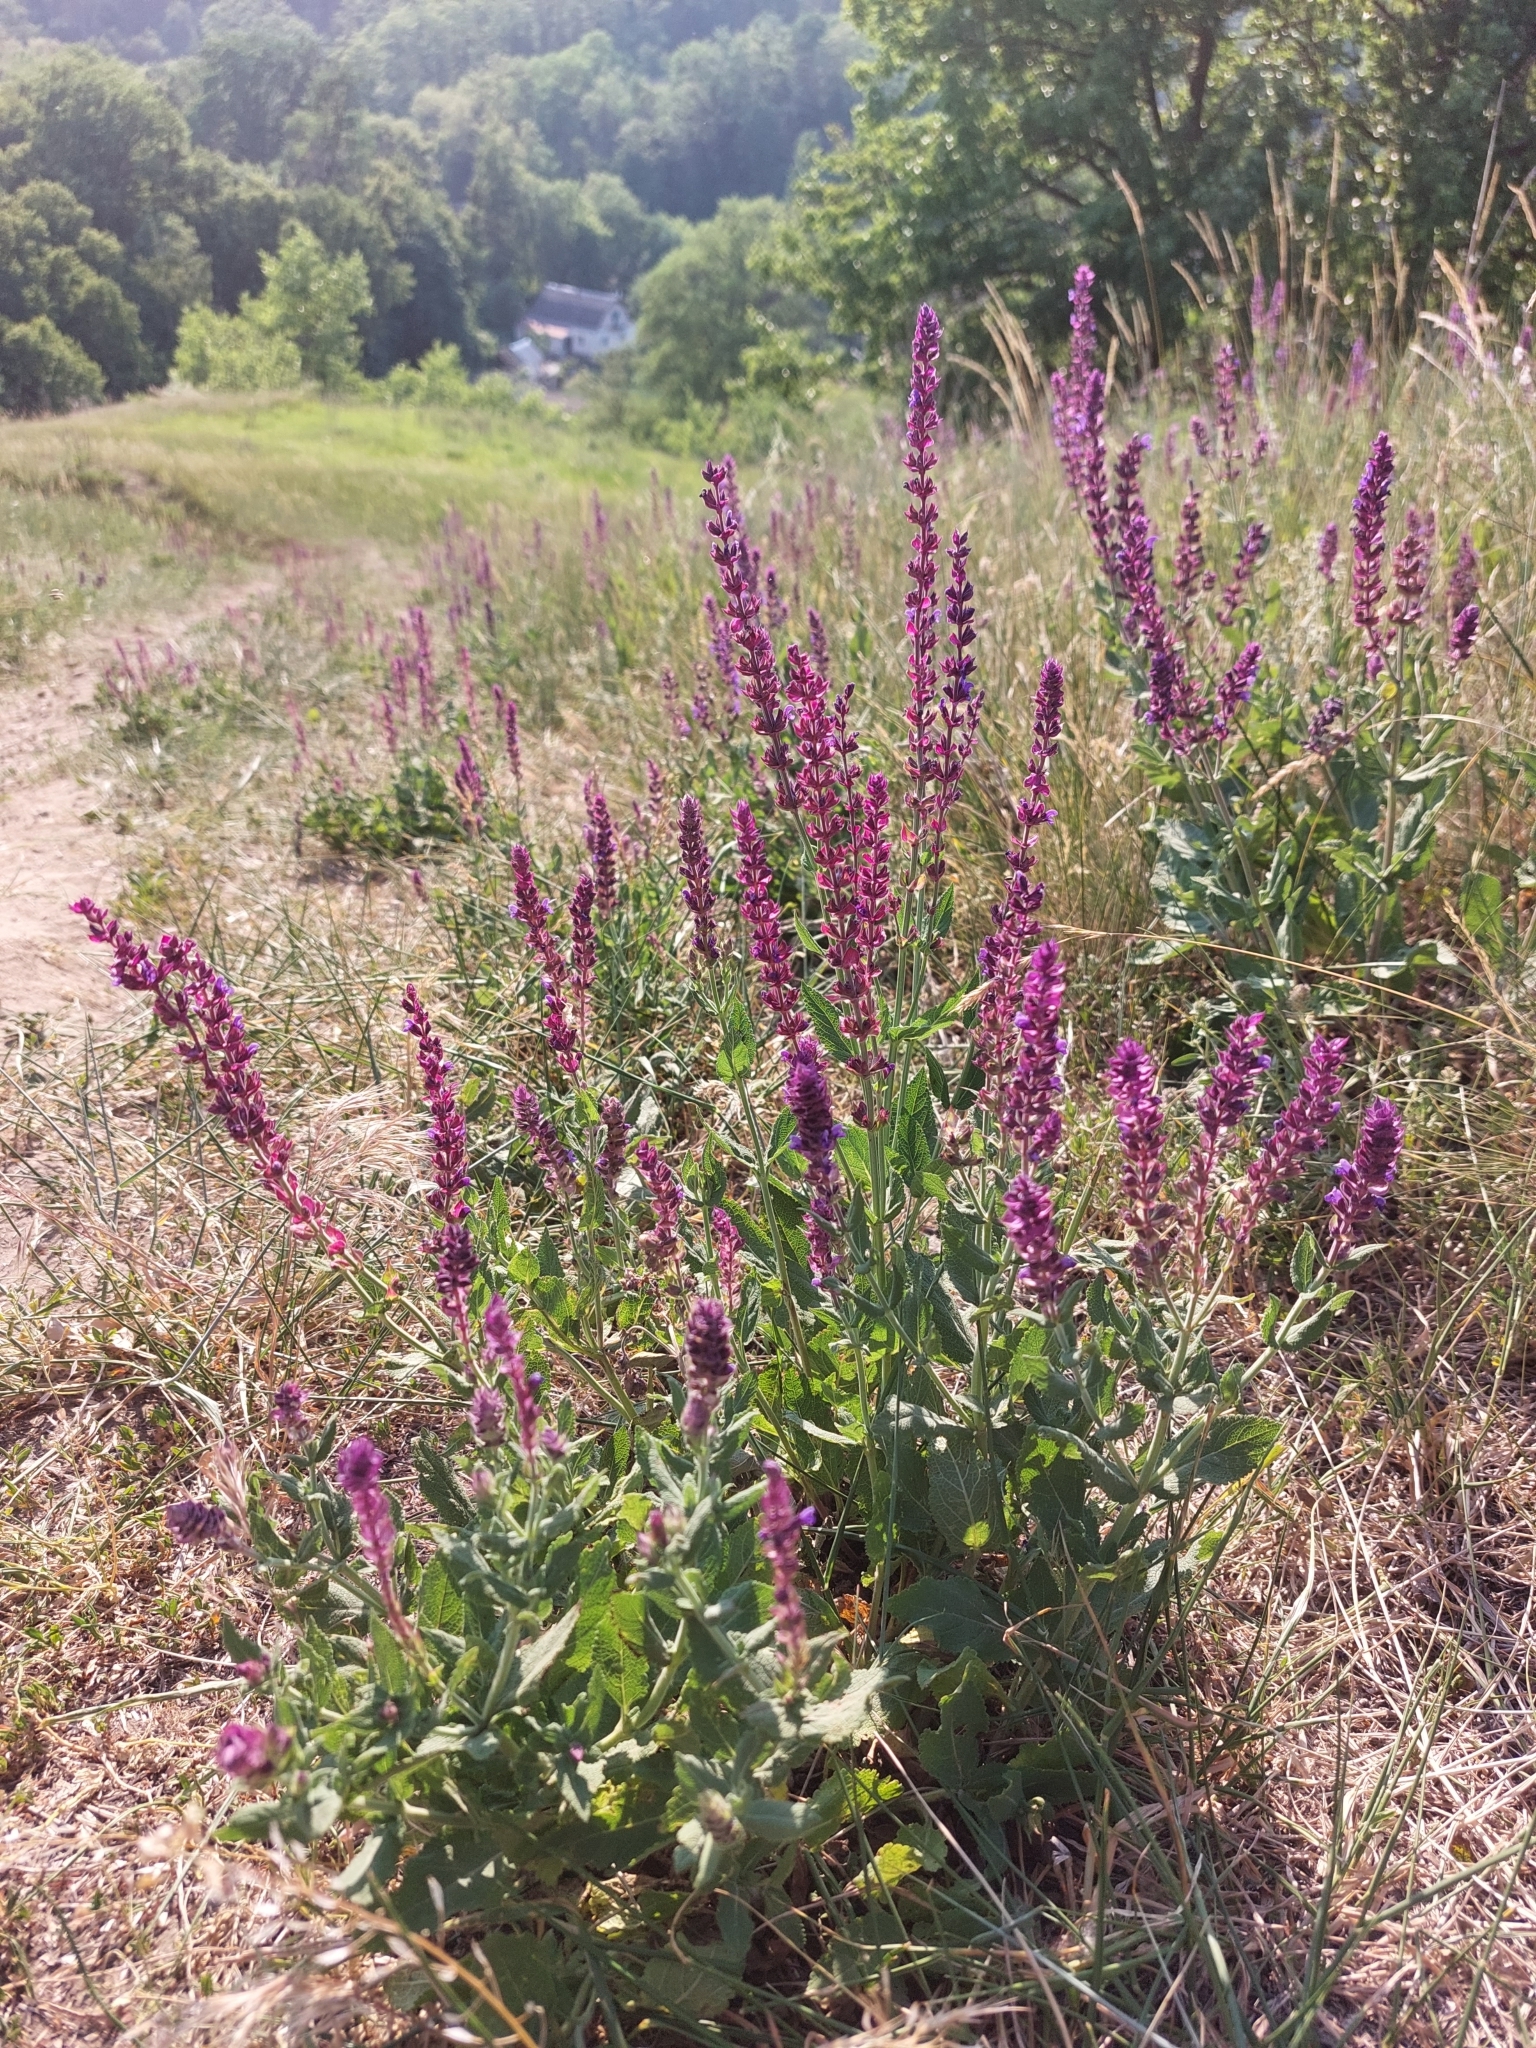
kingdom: Plantae
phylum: Tracheophyta
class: Magnoliopsida
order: Lamiales
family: Lamiaceae
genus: Salvia
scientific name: Salvia nemorosa
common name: Balkan clary
